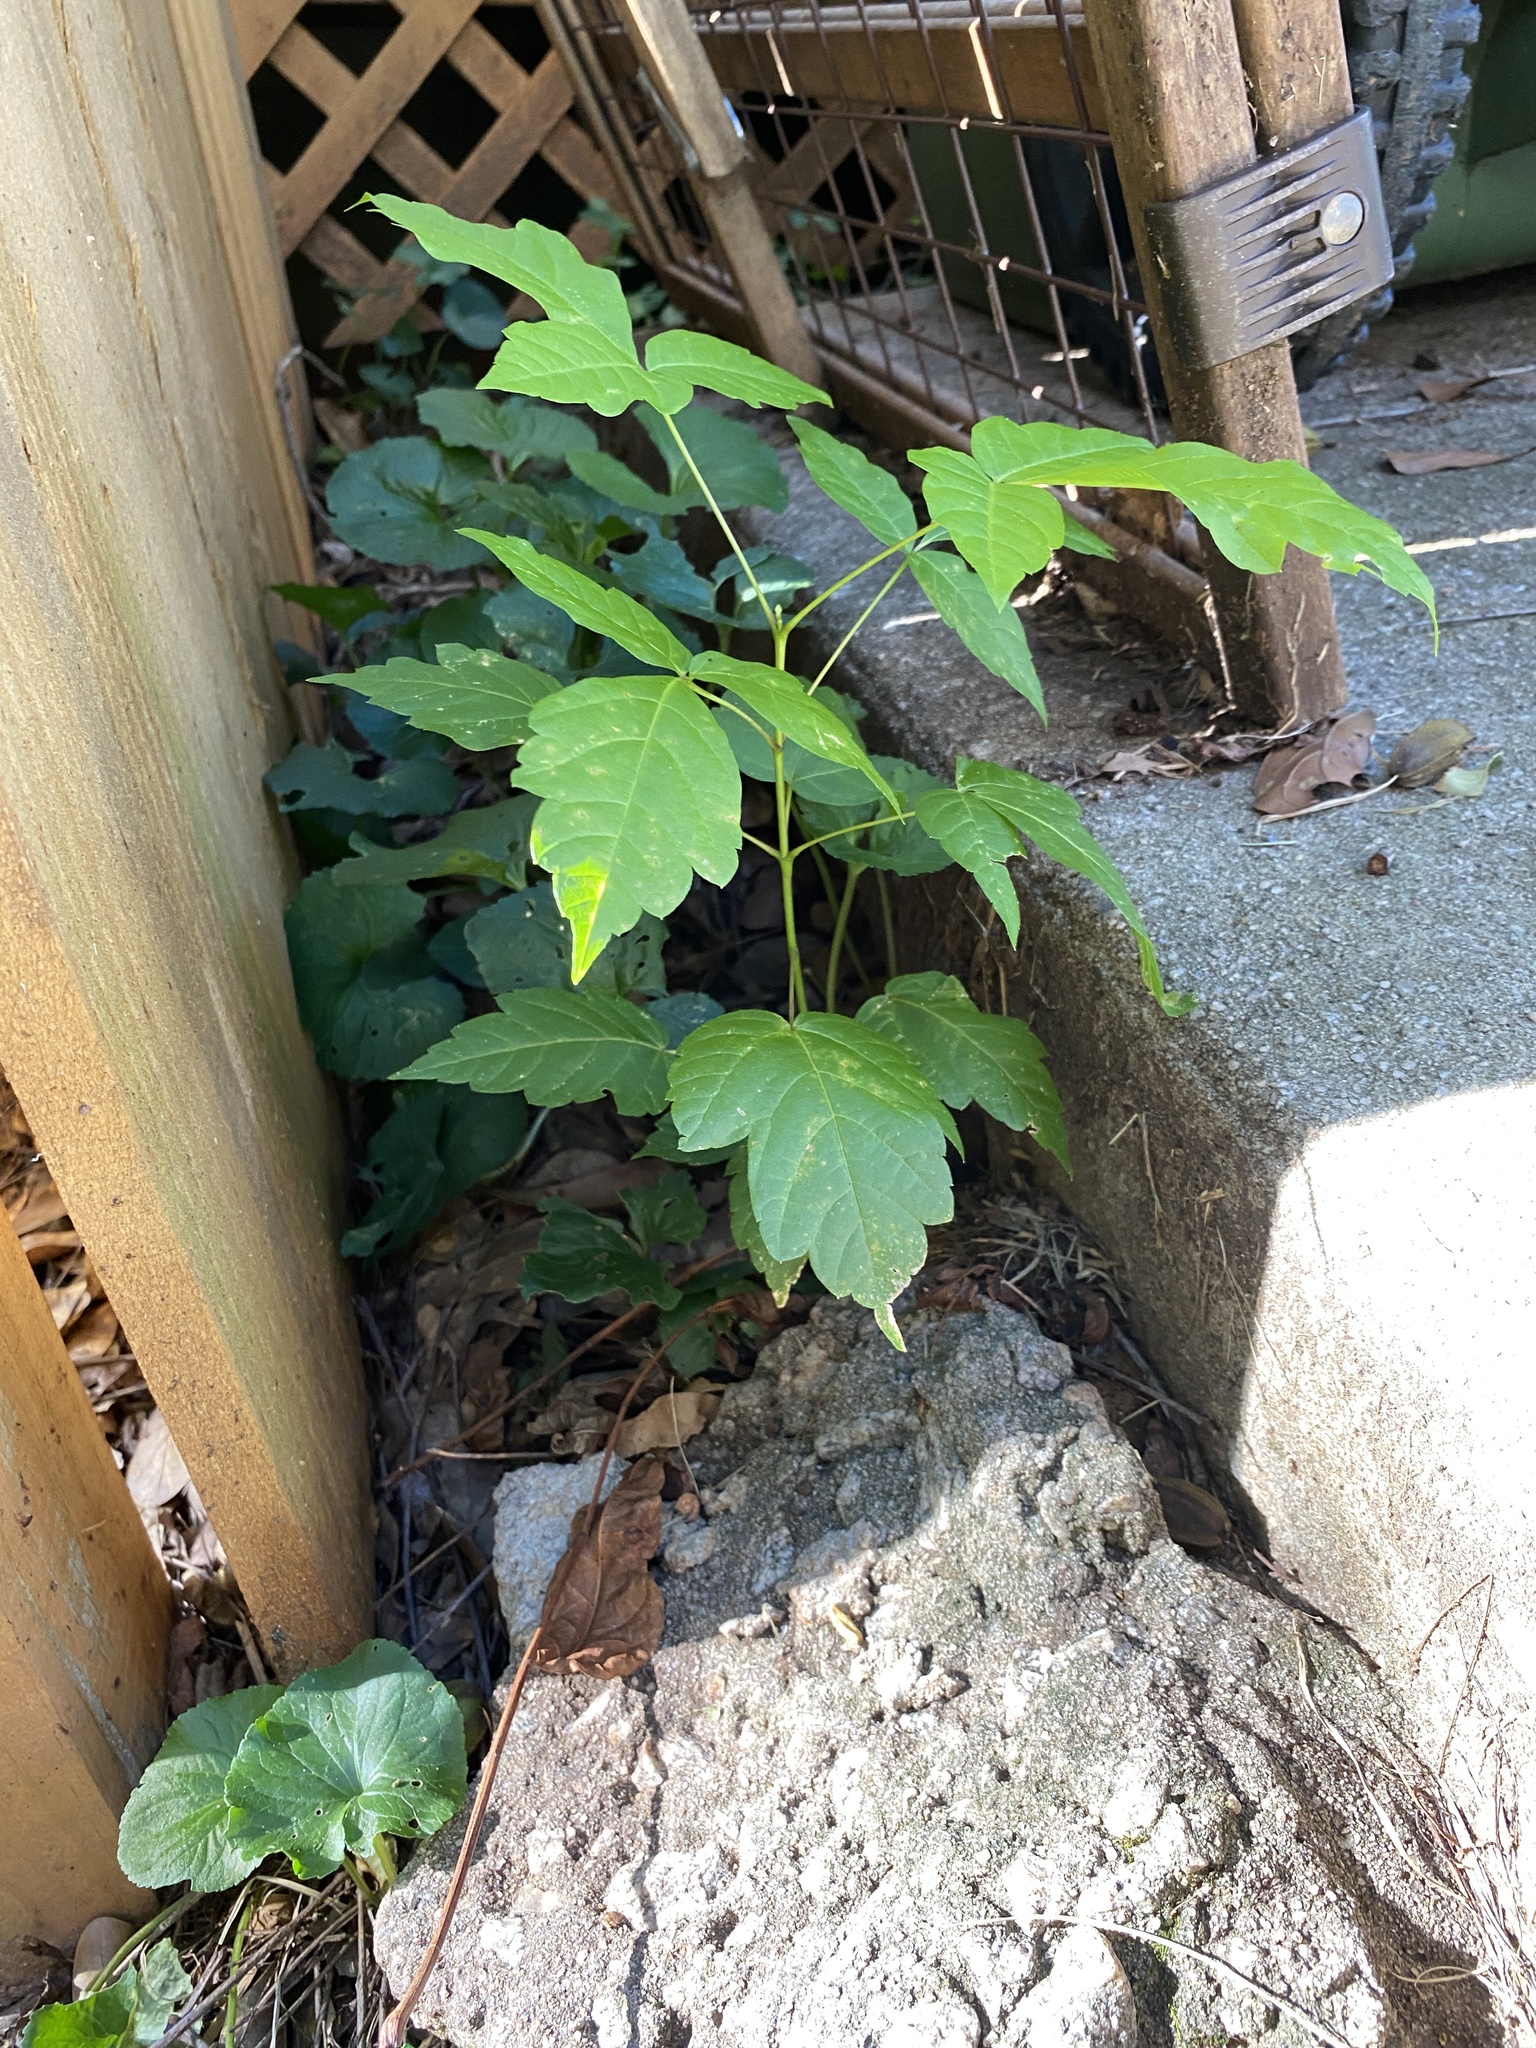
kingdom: Plantae
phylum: Tracheophyta
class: Magnoliopsida
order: Sapindales
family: Sapindaceae
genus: Acer
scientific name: Acer negundo
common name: Ashleaf maple
